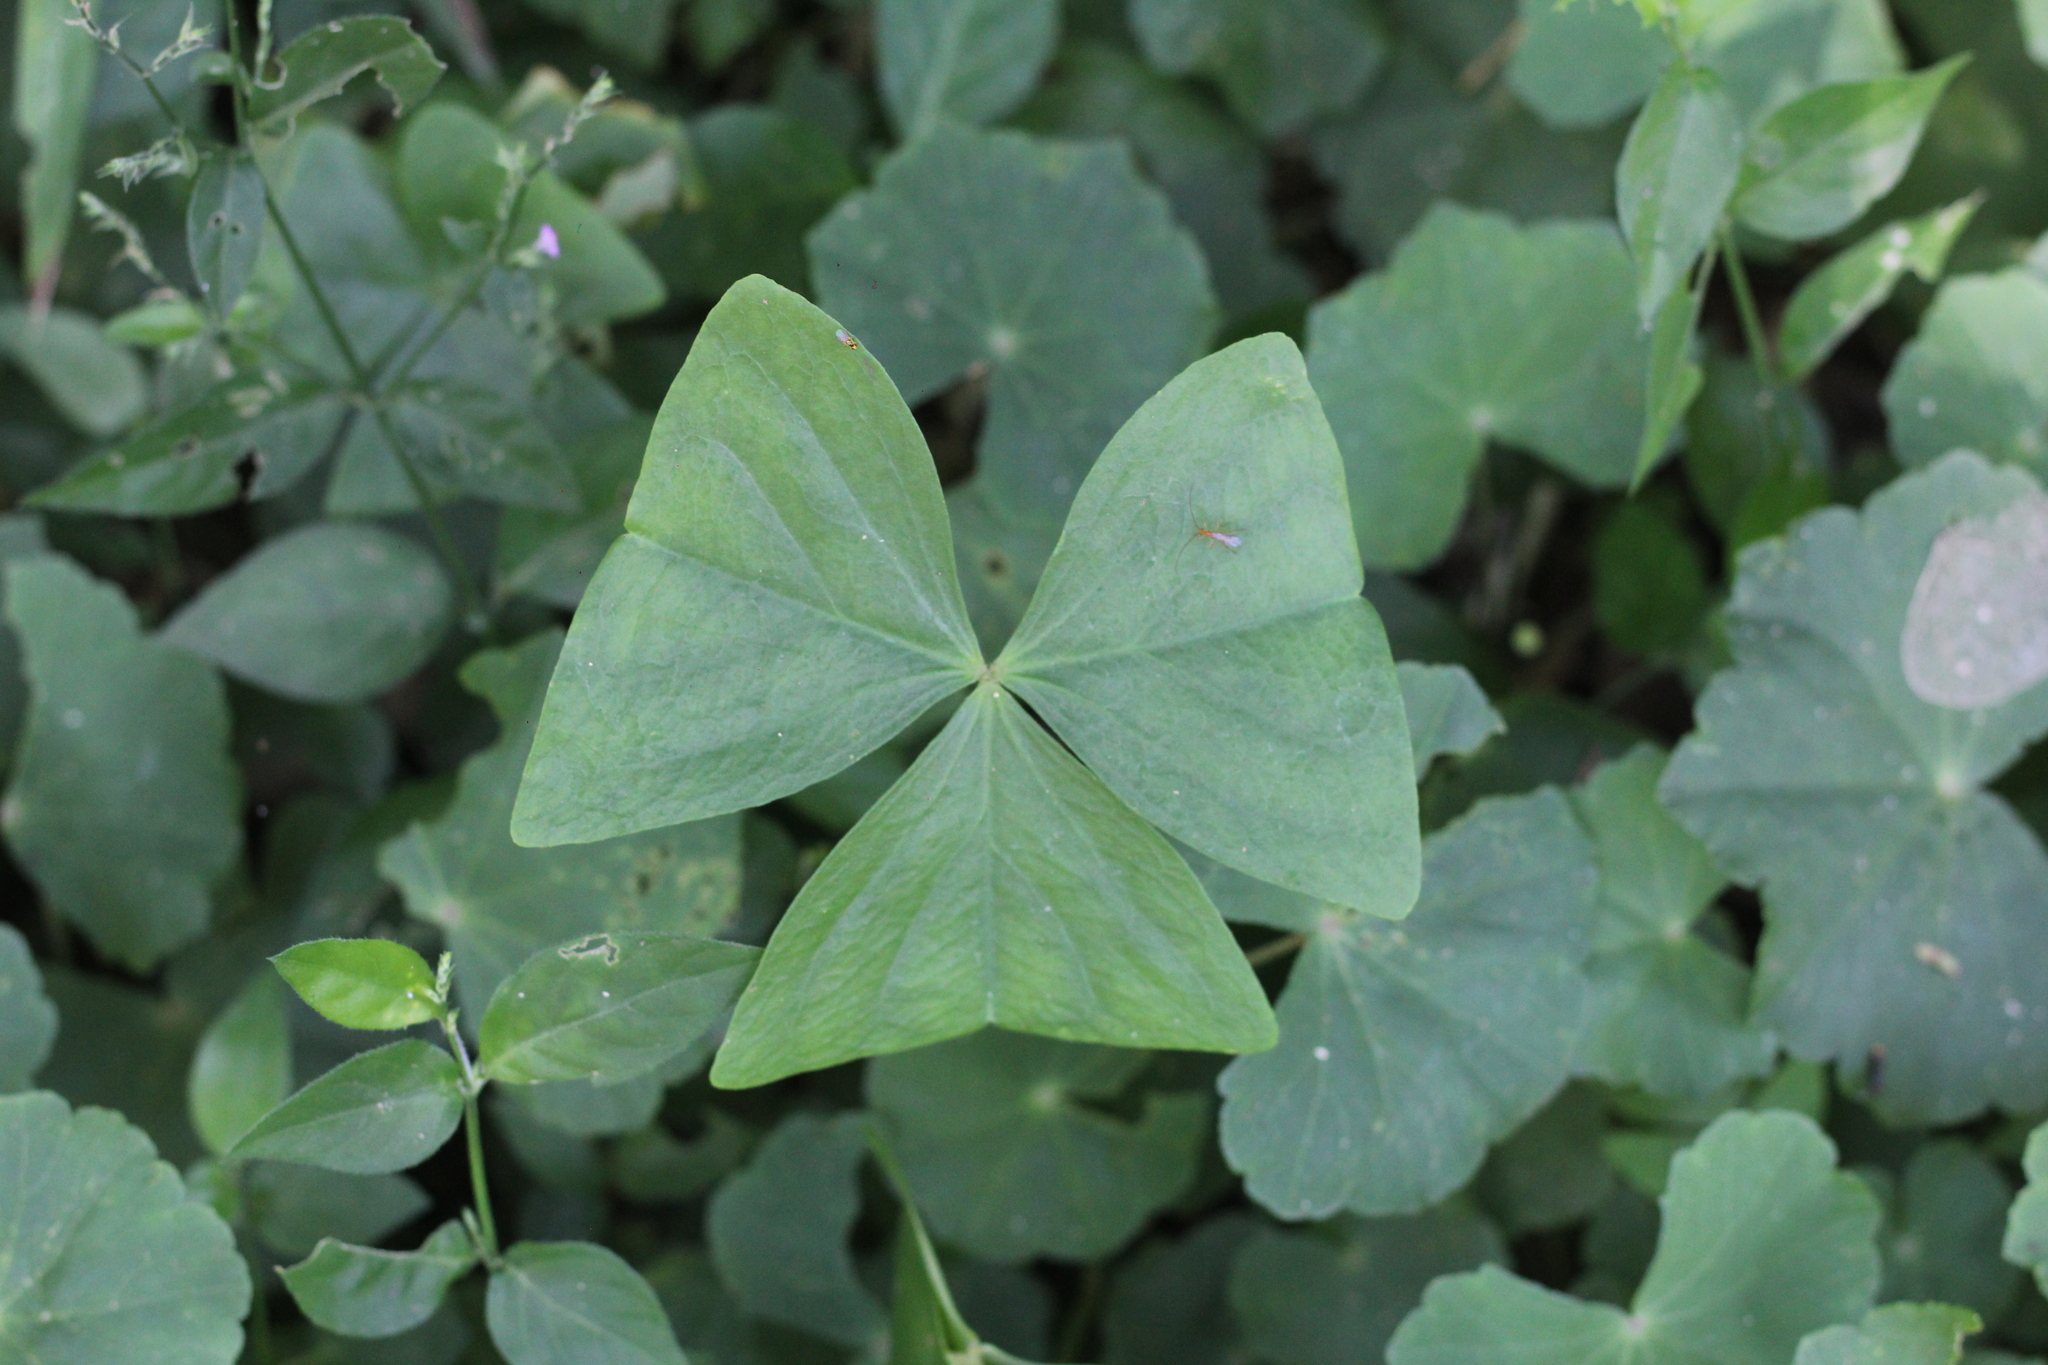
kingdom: Plantae
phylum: Tracheophyta
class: Magnoliopsida
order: Oxalidales
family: Oxalidaceae
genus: Oxalis
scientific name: Oxalis triangularis
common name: Wood sorrel
